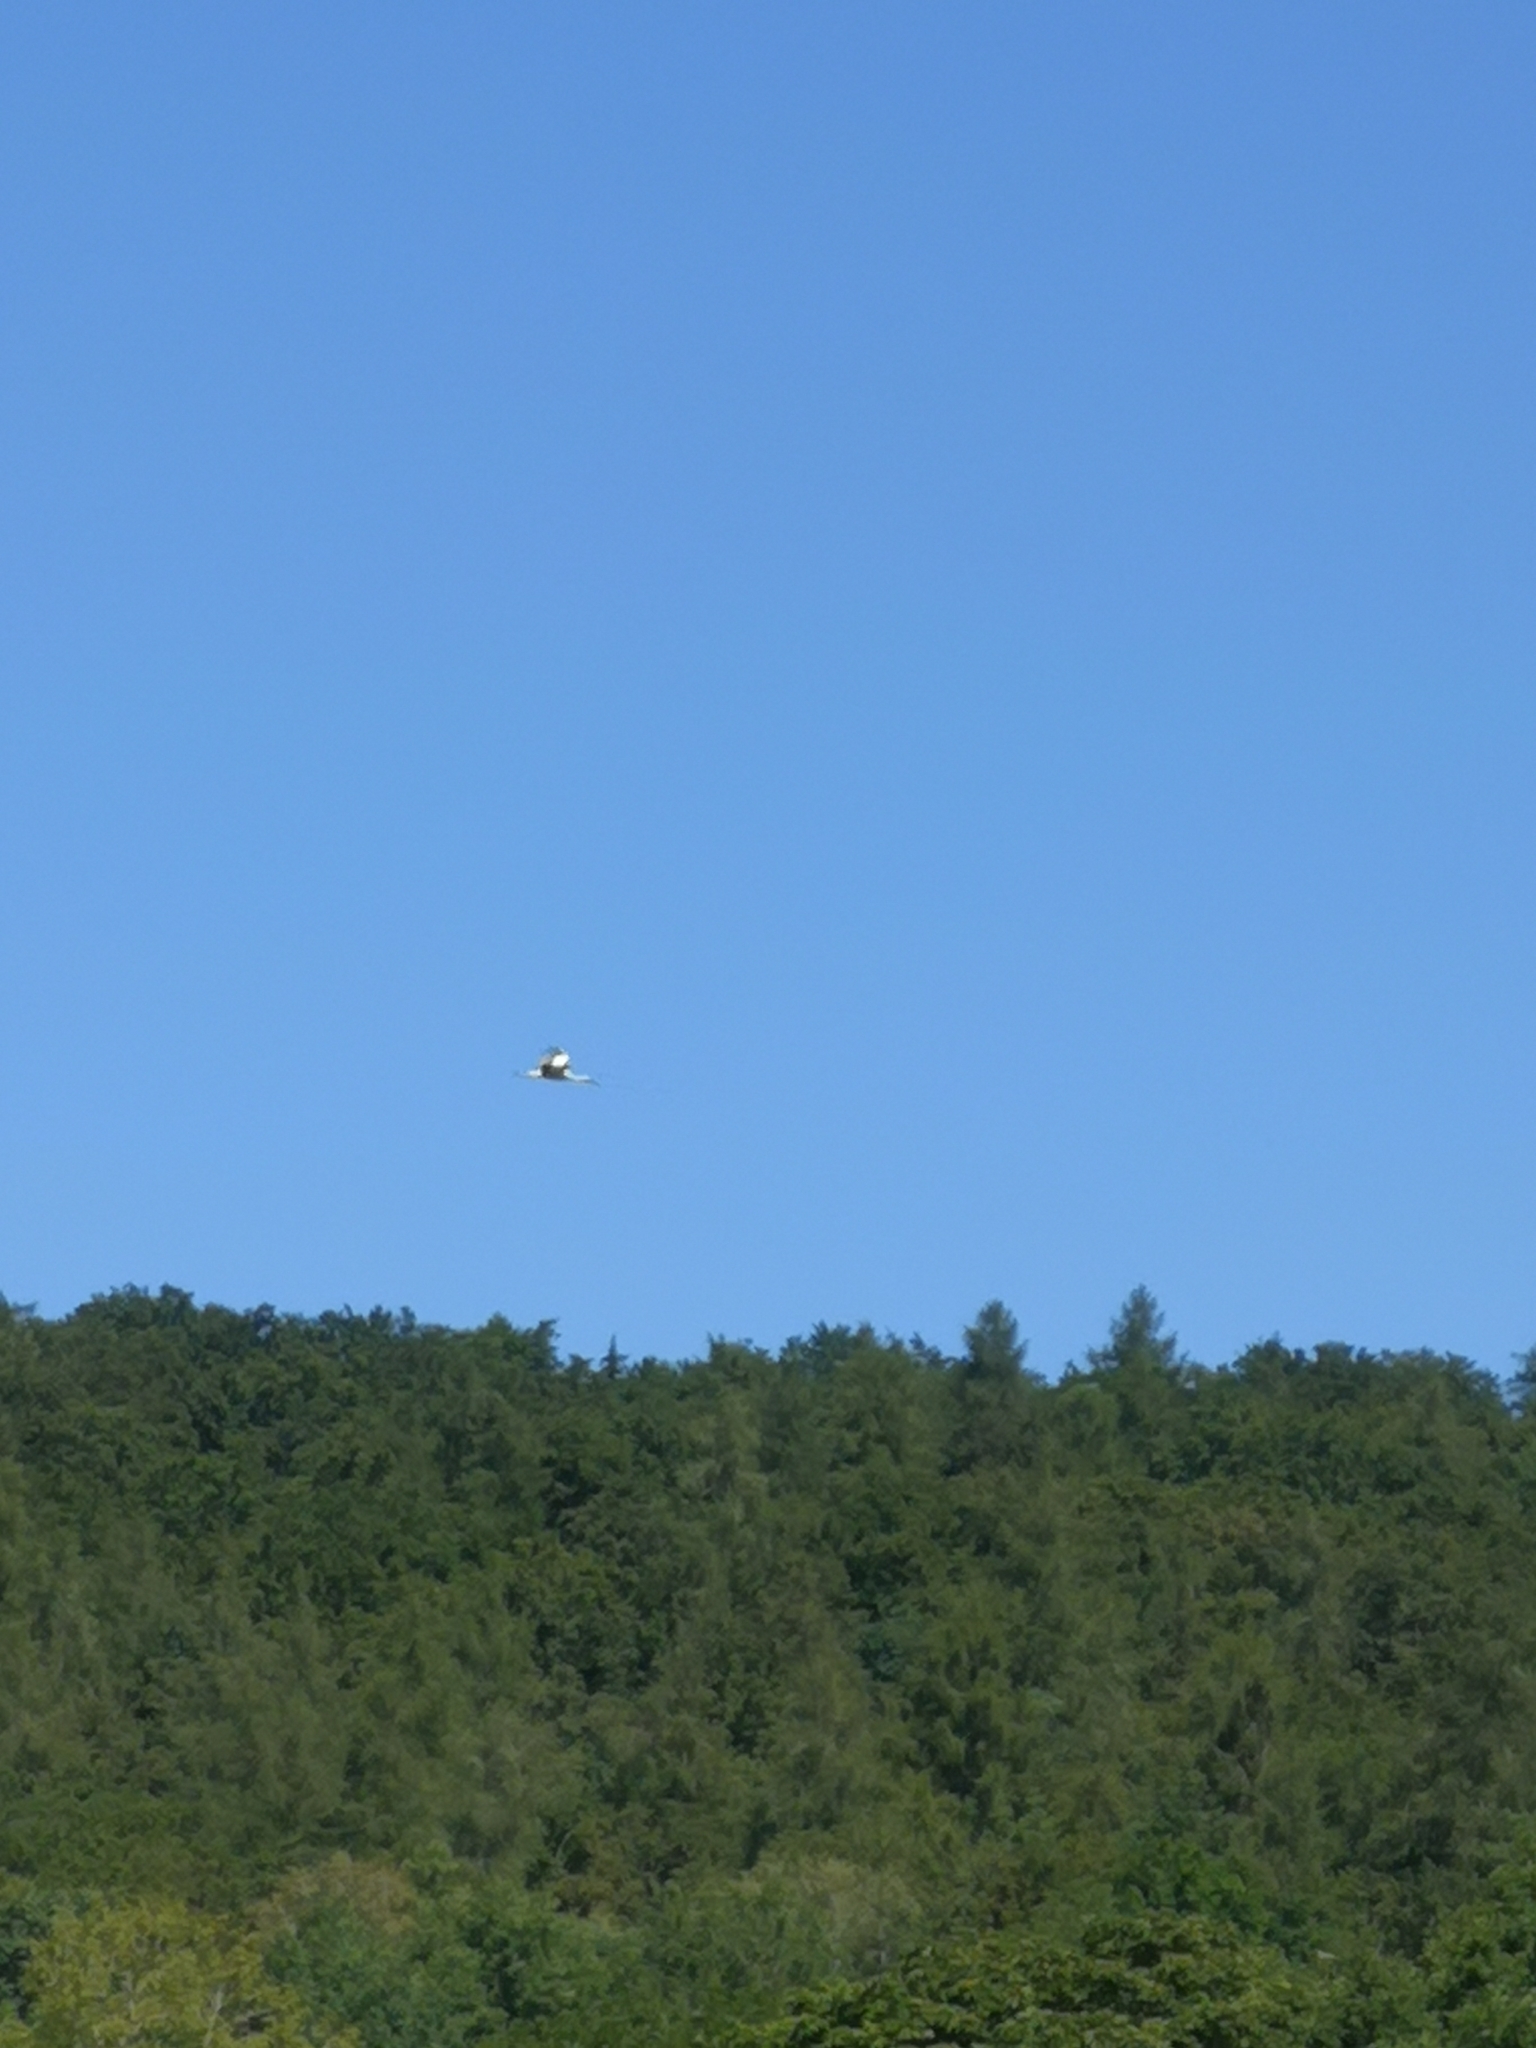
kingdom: Animalia
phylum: Chordata
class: Aves
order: Ciconiiformes
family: Ciconiidae
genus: Ciconia
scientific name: Ciconia ciconia
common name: White stork
